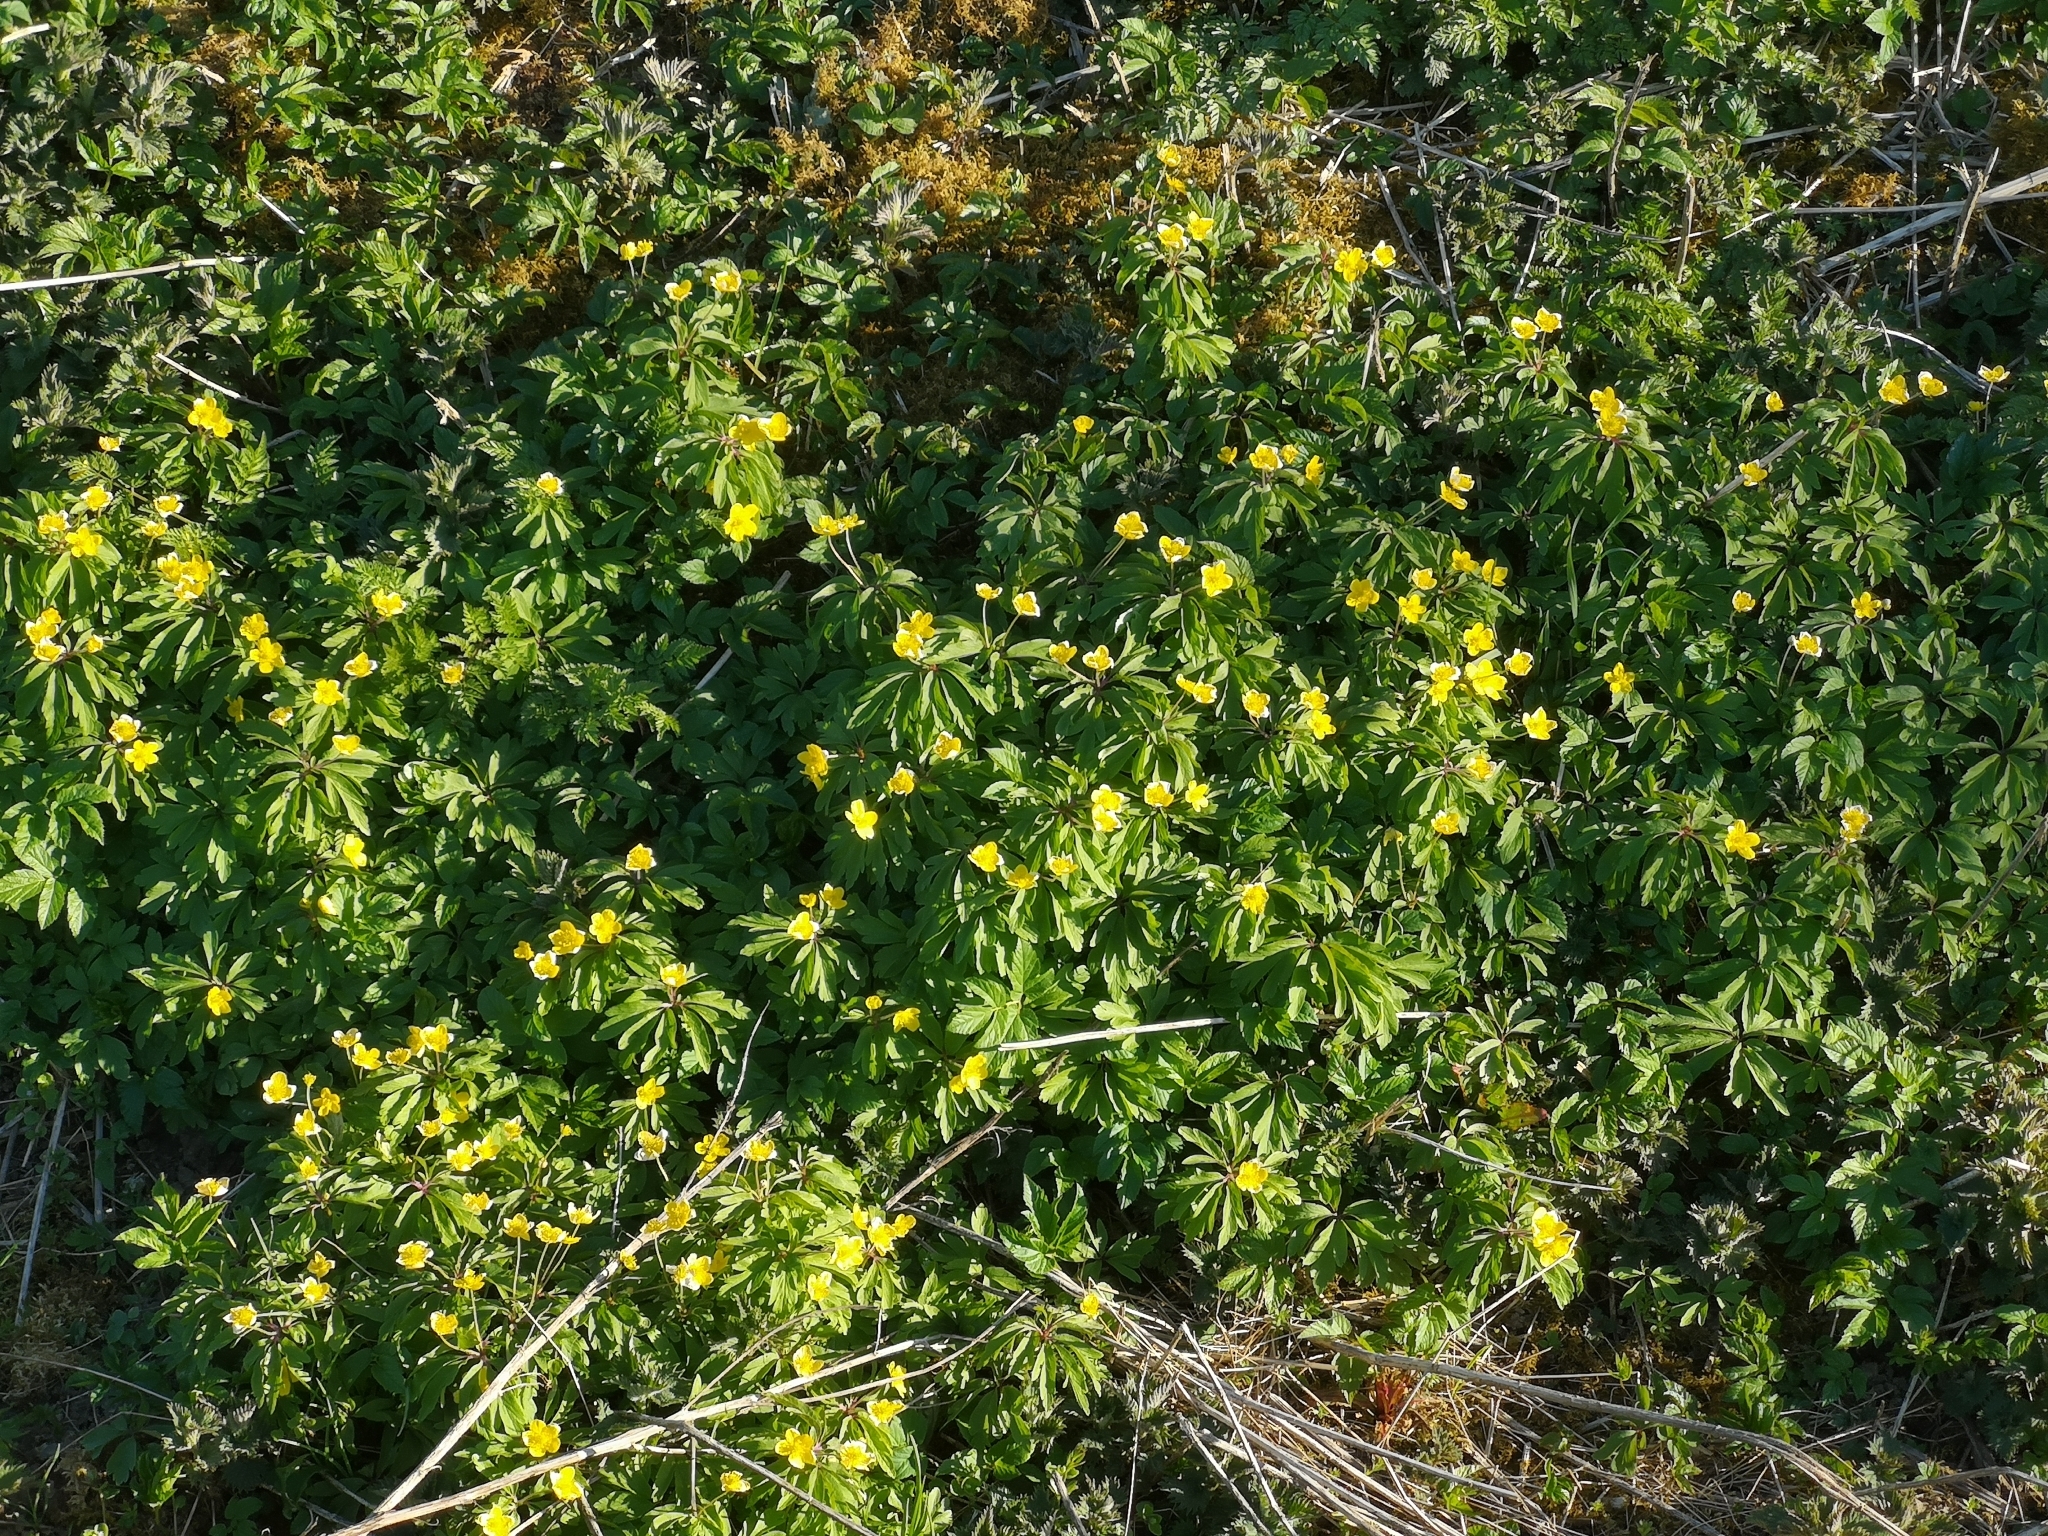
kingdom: Plantae
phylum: Tracheophyta
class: Magnoliopsida
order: Ranunculales
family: Ranunculaceae
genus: Anemone
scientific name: Anemone ranunculoides
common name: Yellow anemone
